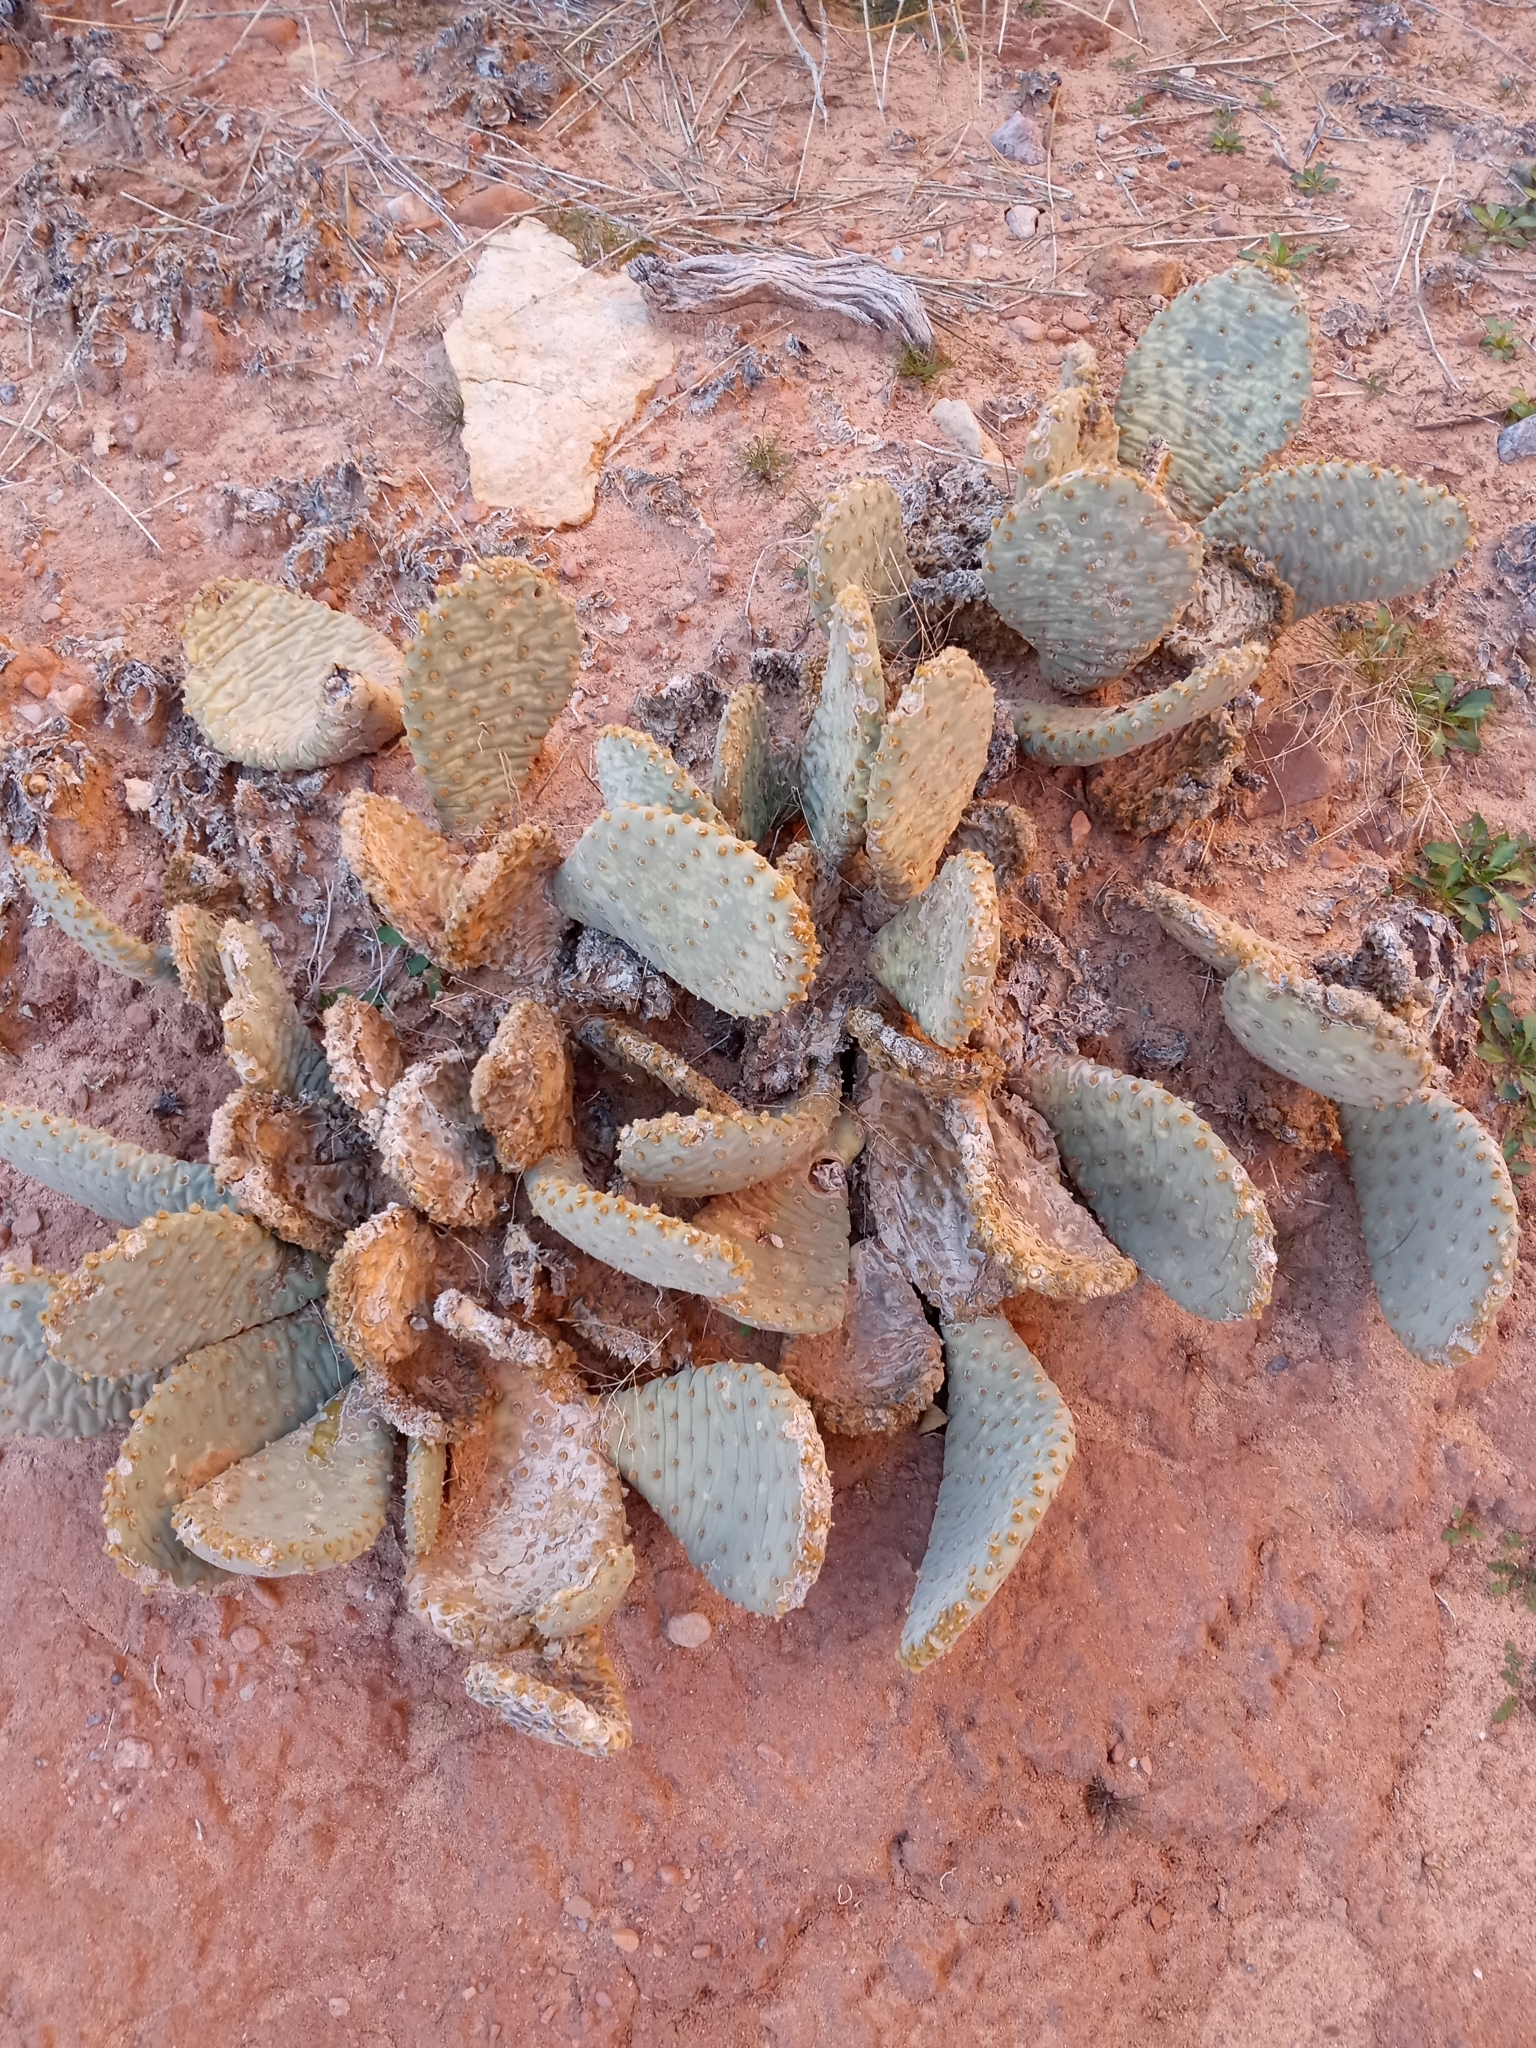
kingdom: Plantae
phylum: Tracheophyta
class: Magnoliopsida
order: Caryophyllales
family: Cactaceae
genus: Opuntia
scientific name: Opuntia basilaris
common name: Beavertail prickly-pear
